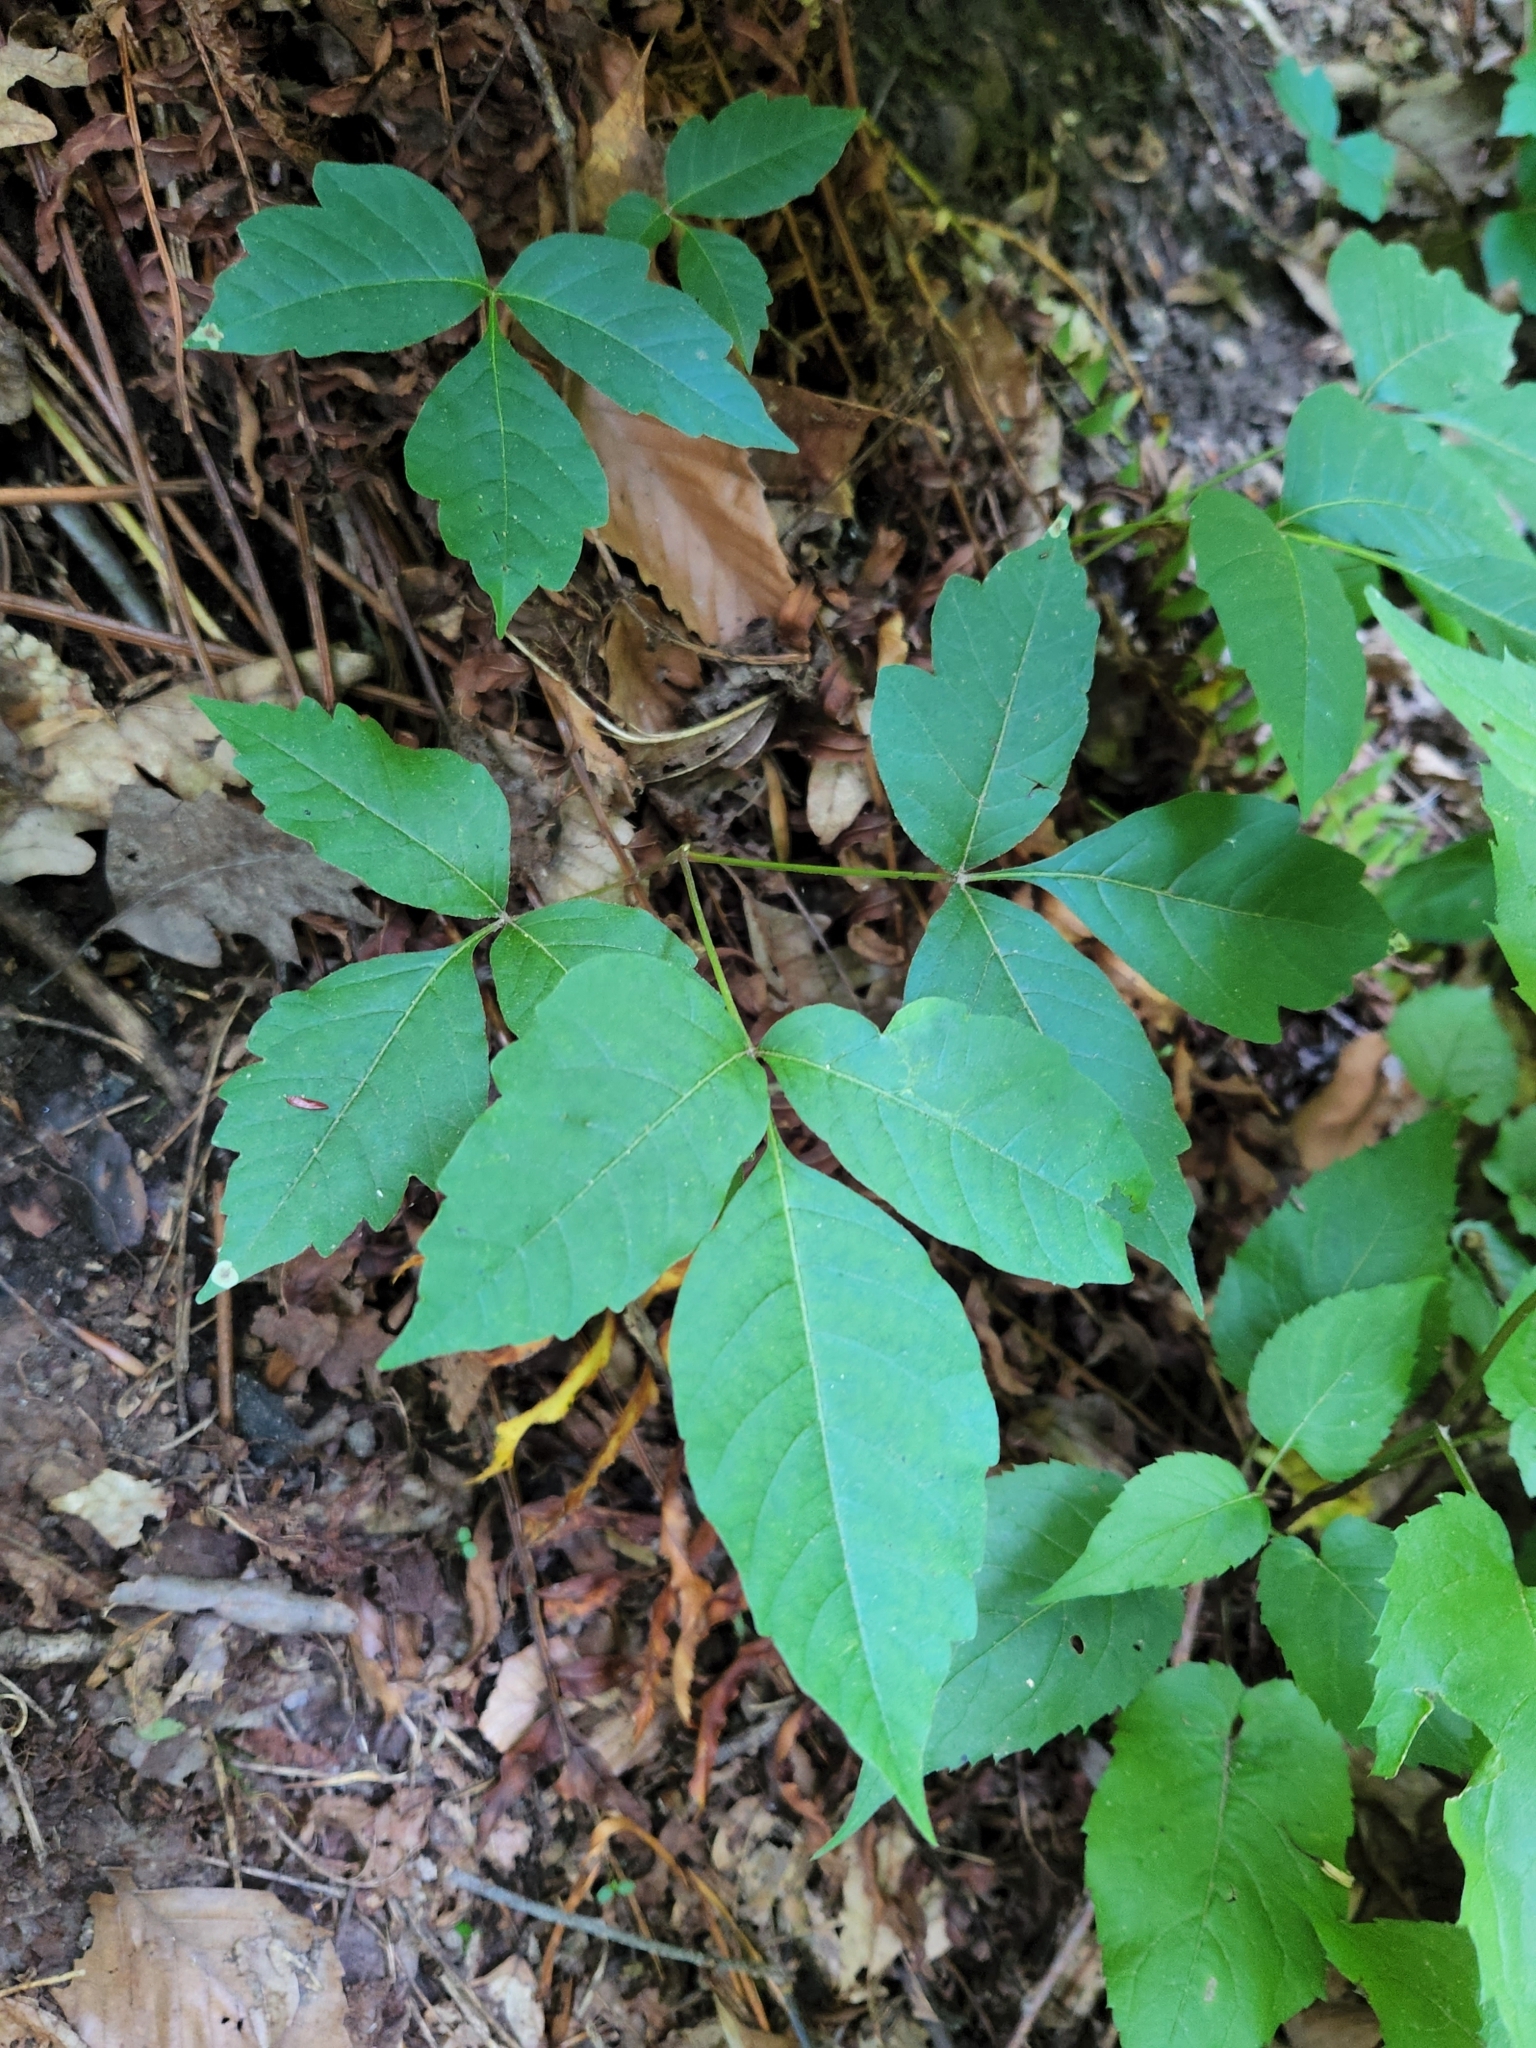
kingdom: Plantae
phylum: Tracheophyta
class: Magnoliopsida
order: Sapindales
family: Anacardiaceae
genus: Toxicodendron
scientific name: Toxicodendron radicans
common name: Poison ivy
